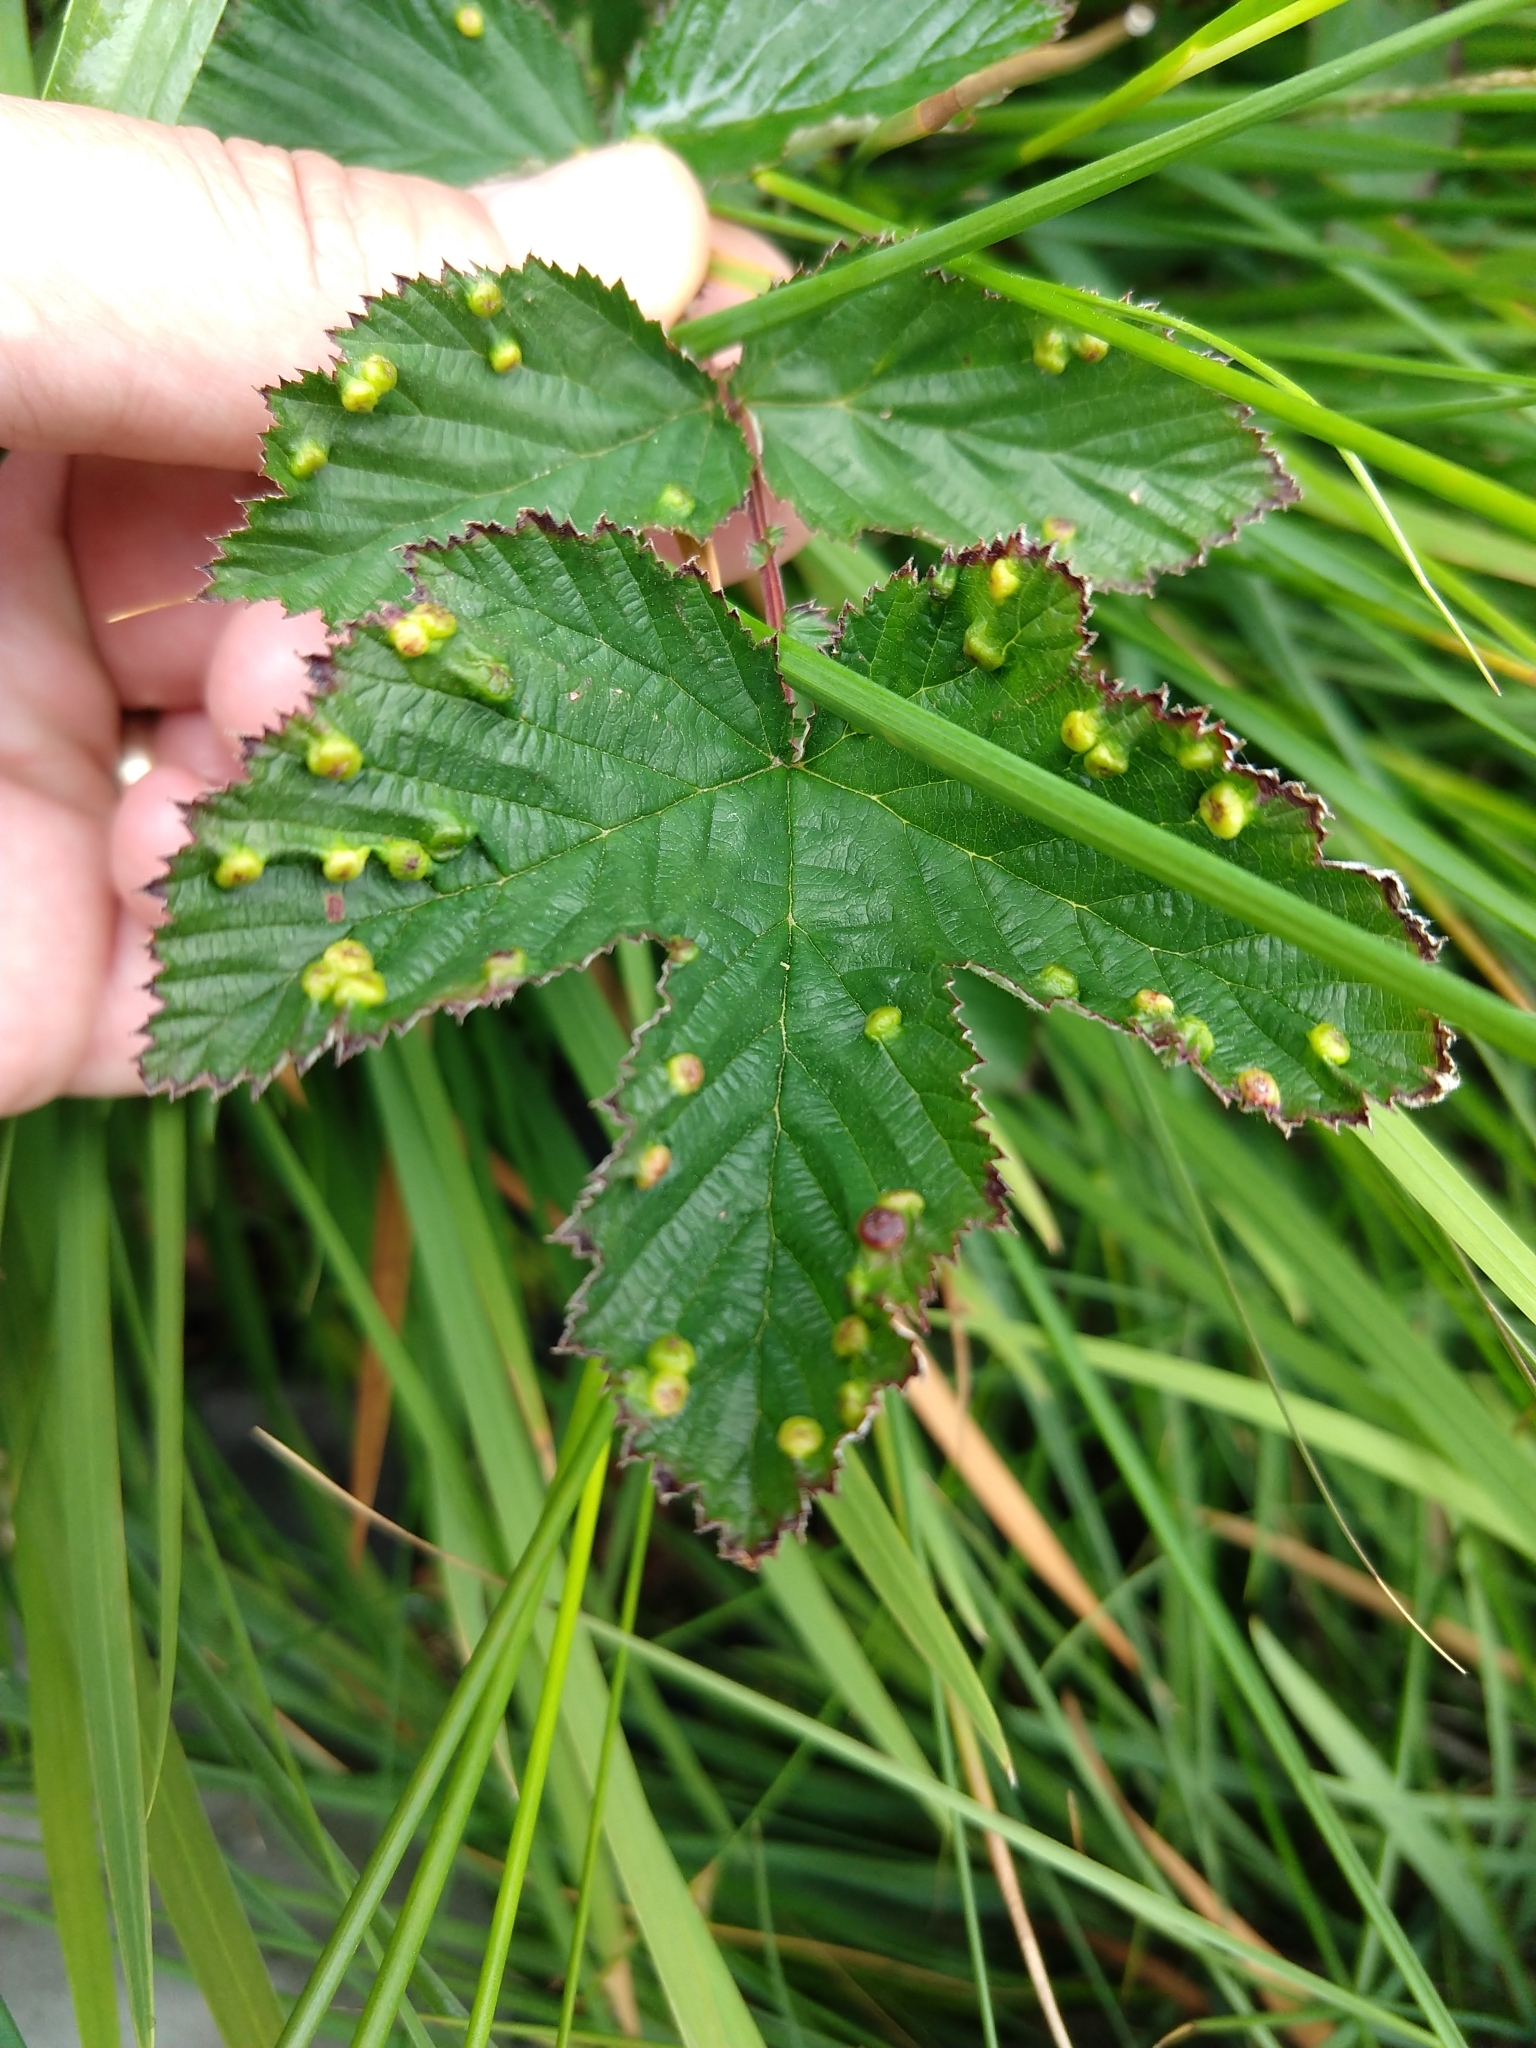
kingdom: Animalia
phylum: Arthropoda
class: Insecta
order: Diptera
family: Cecidomyiidae
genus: Dasineura
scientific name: Dasineura ulmaria
